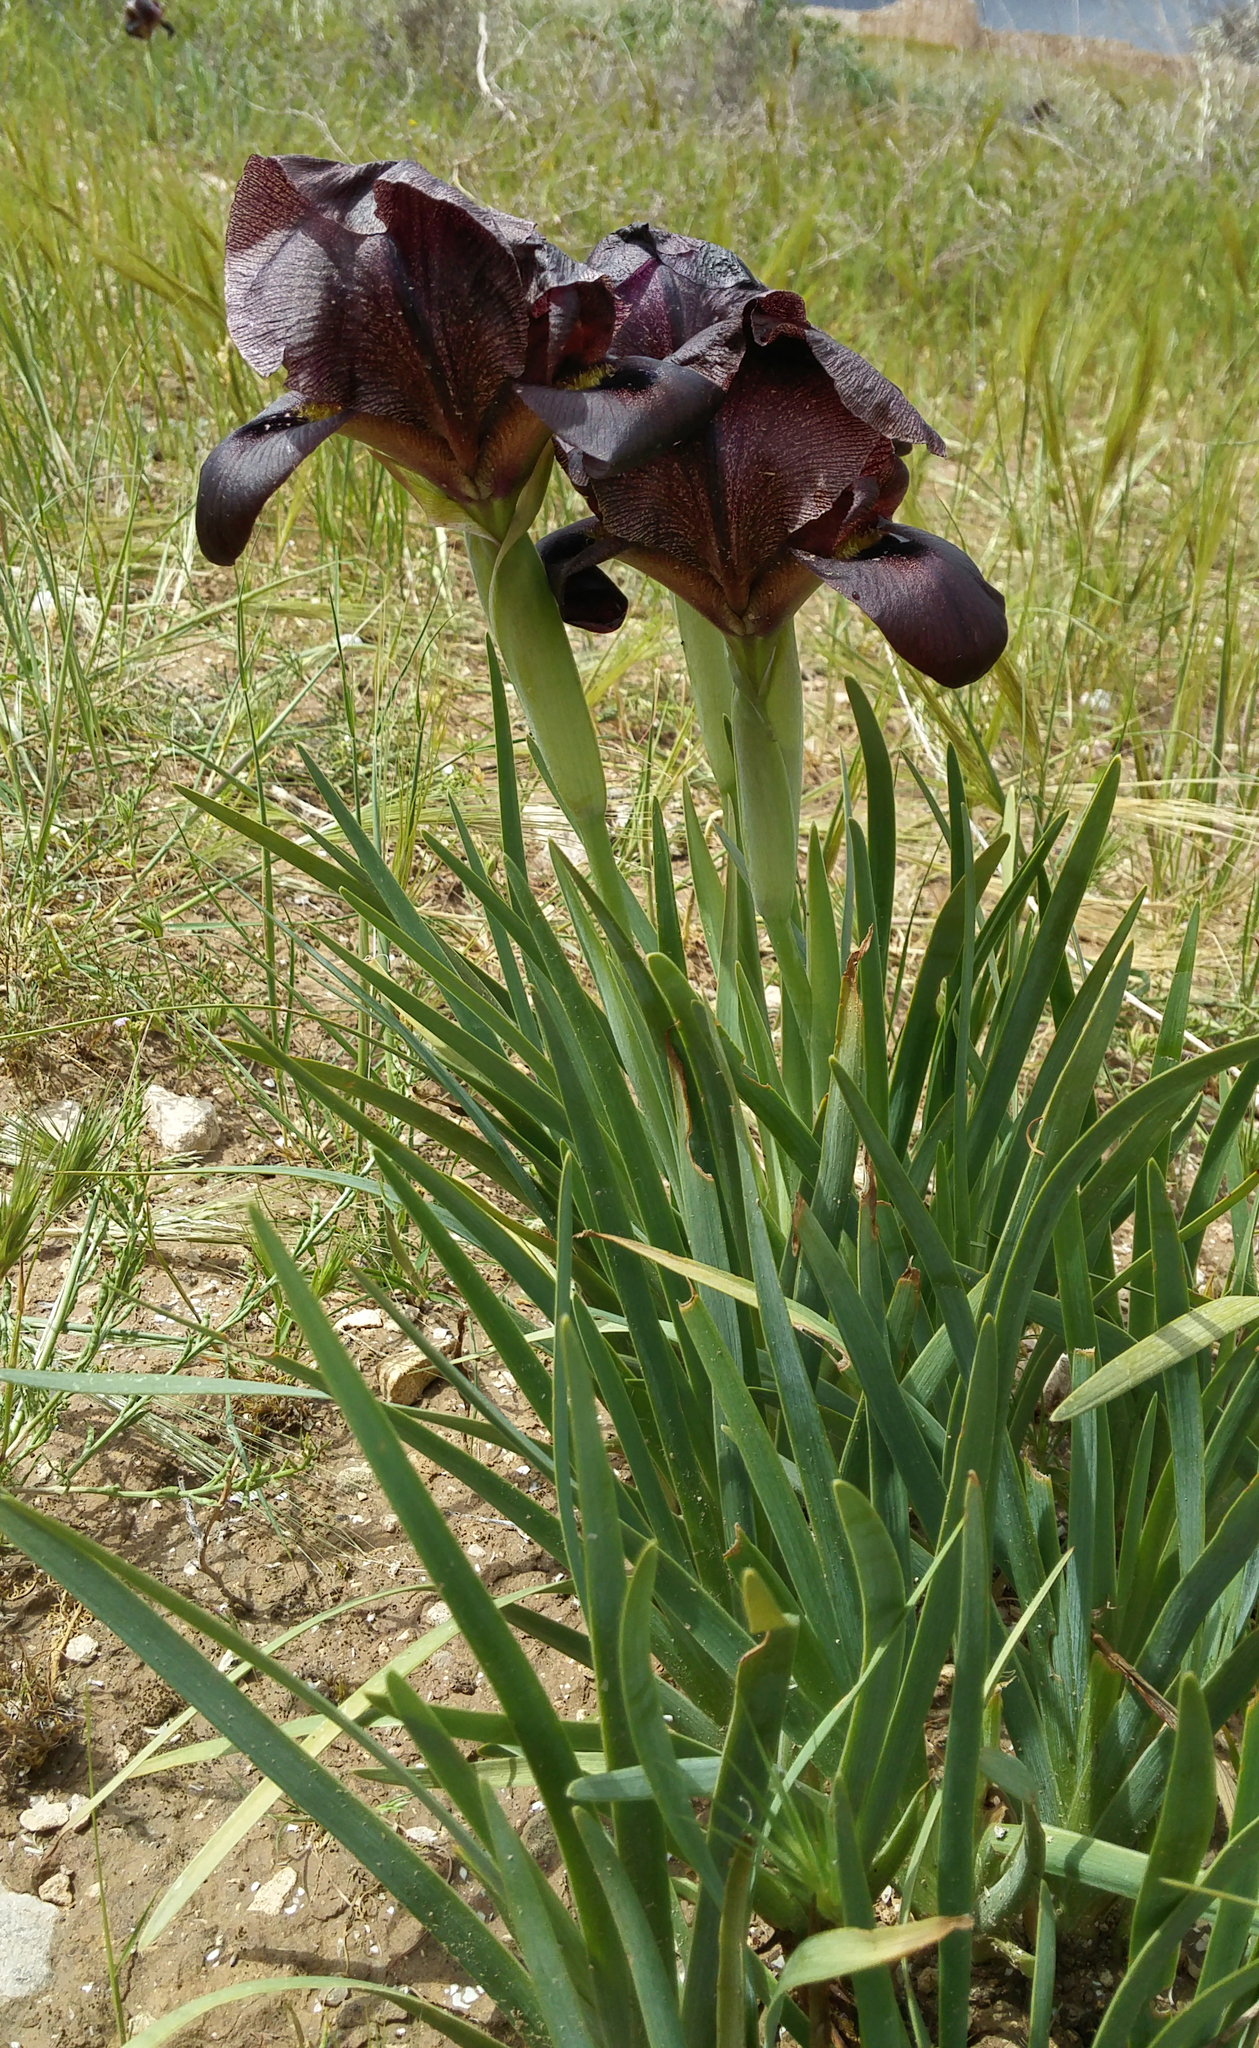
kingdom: Plantae
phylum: Tracheophyta
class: Liliopsida
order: Asparagales
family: Iridaceae
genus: Iris
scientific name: Iris atrofusca
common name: Asshafa iris
